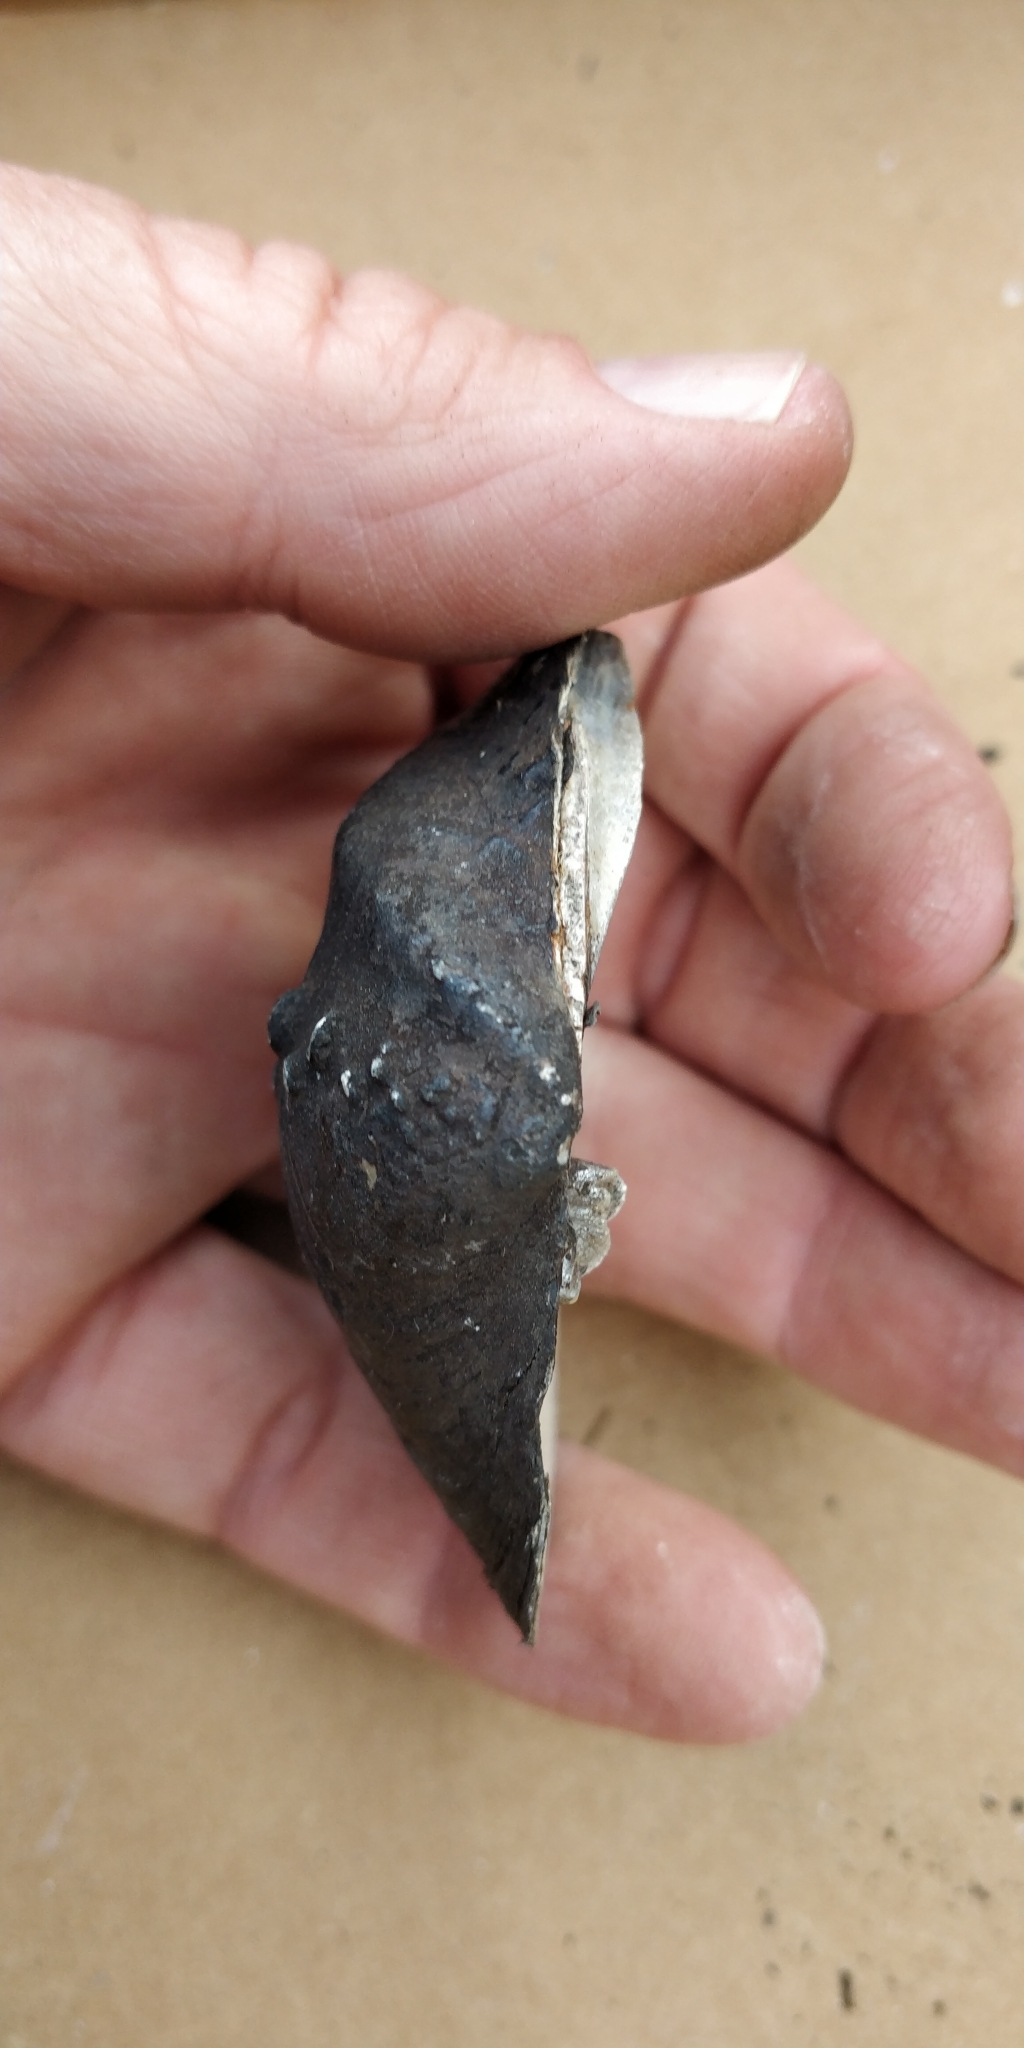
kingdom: Animalia
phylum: Mollusca
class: Bivalvia
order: Unionida
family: Unionidae
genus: Quadrula
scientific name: Quadrula quadrula
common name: Mapleleaf
